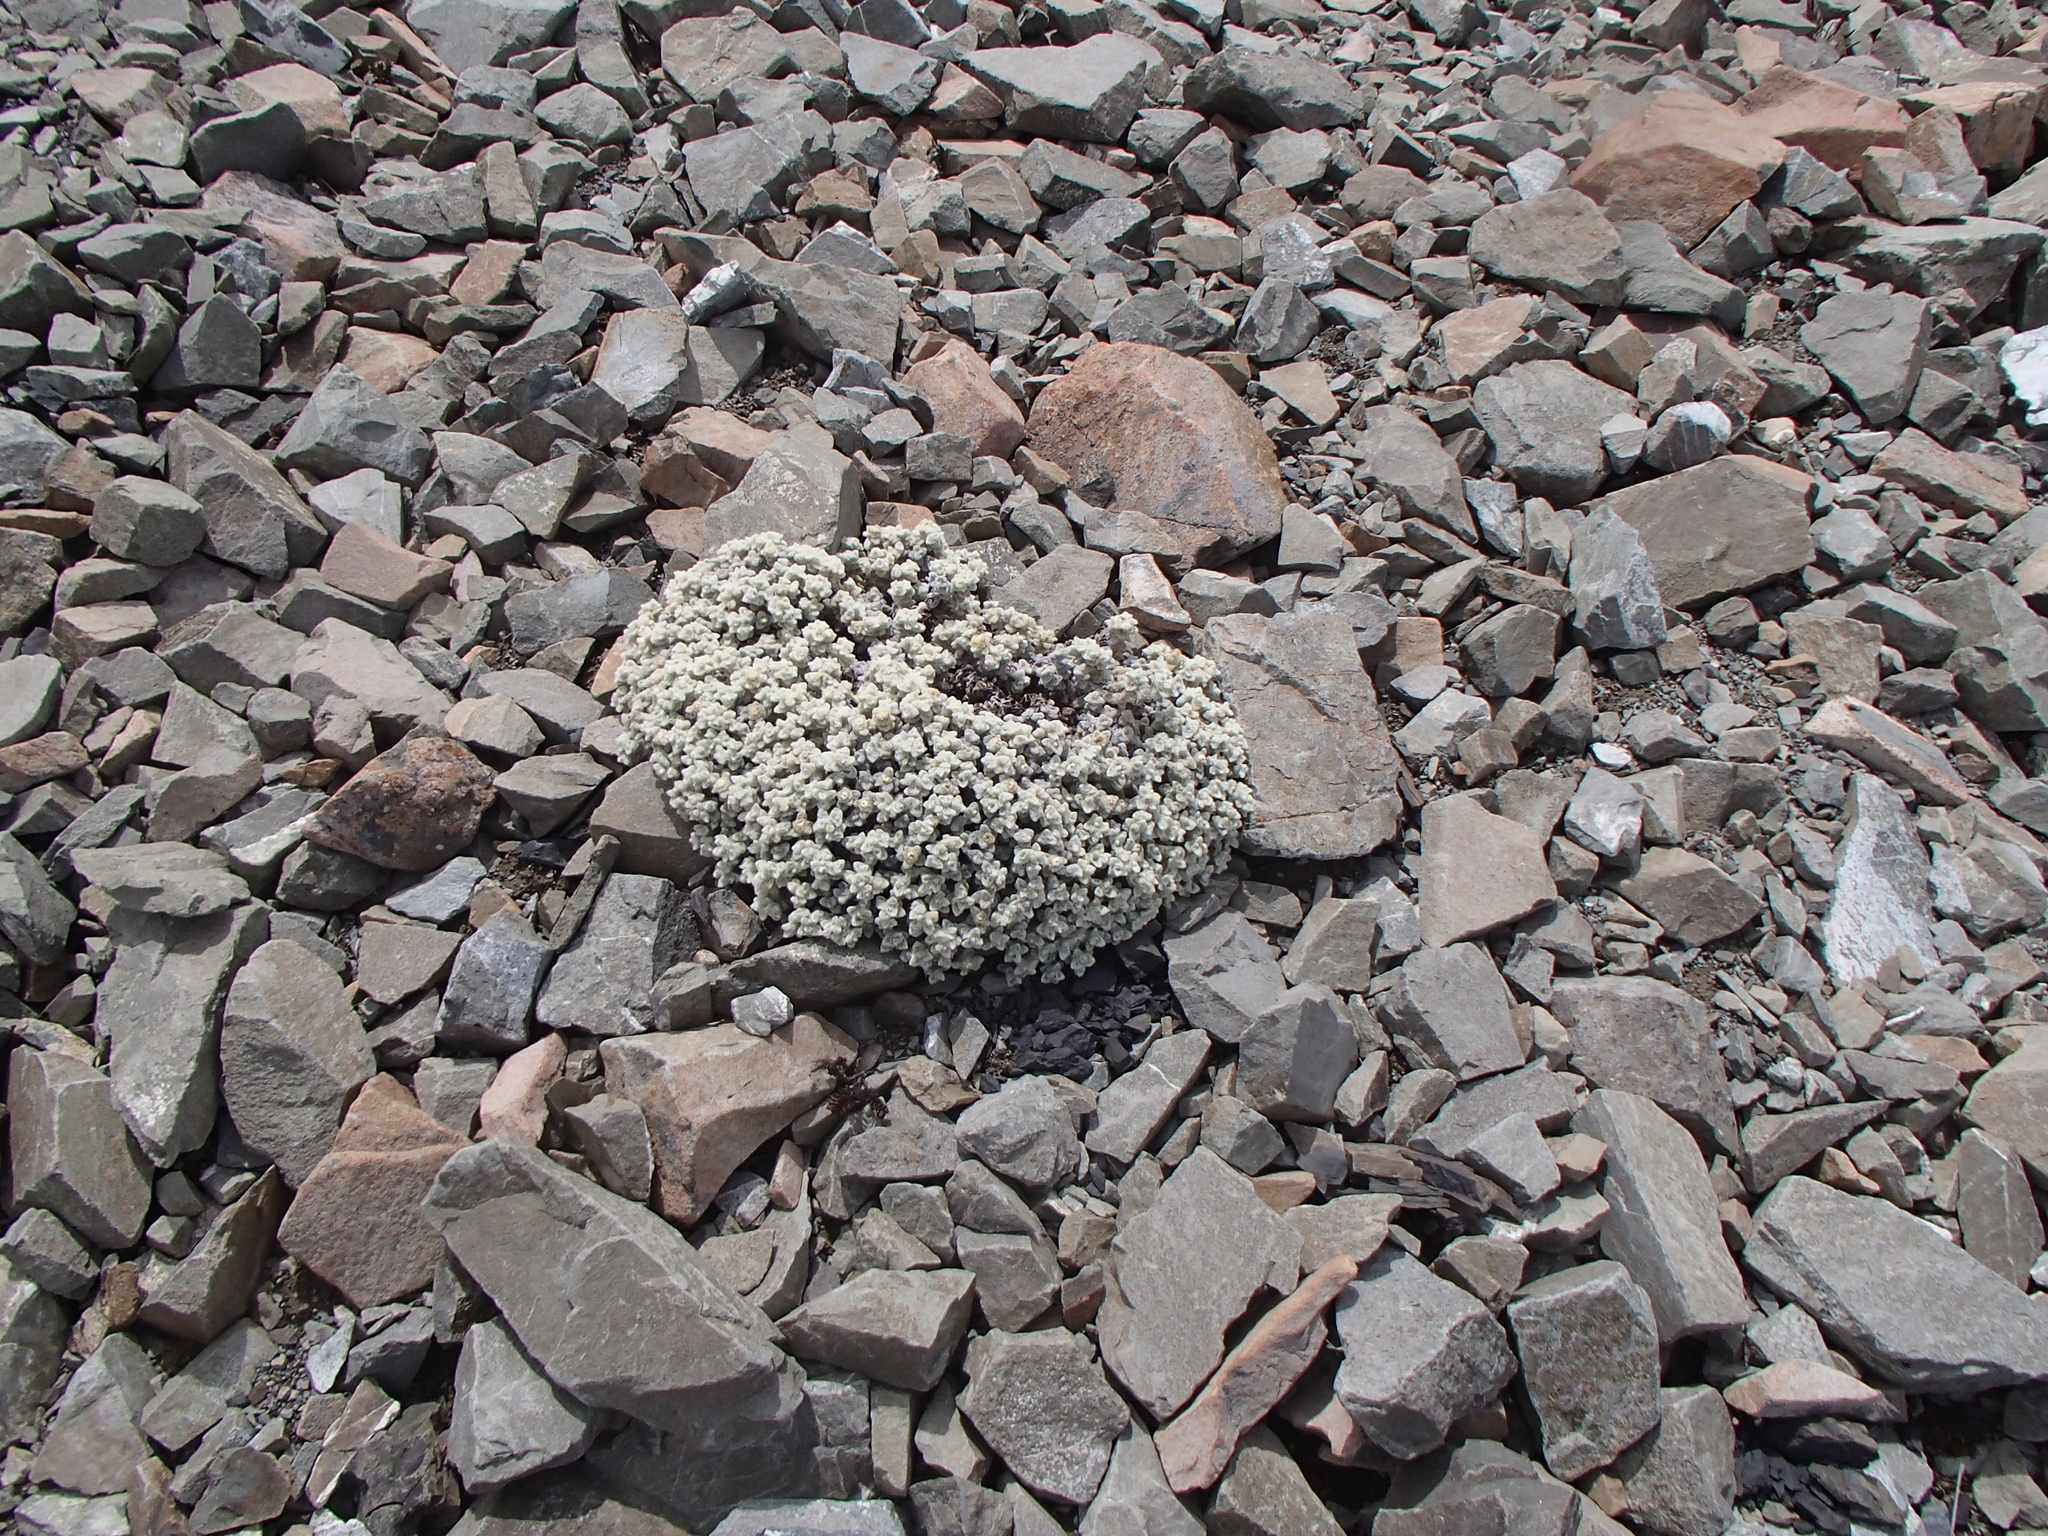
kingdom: Plantae
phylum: Tracheophyta
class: Magnoliopsida
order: Asterales
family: Asteraceae
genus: Haastia
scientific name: Haastia recurva
